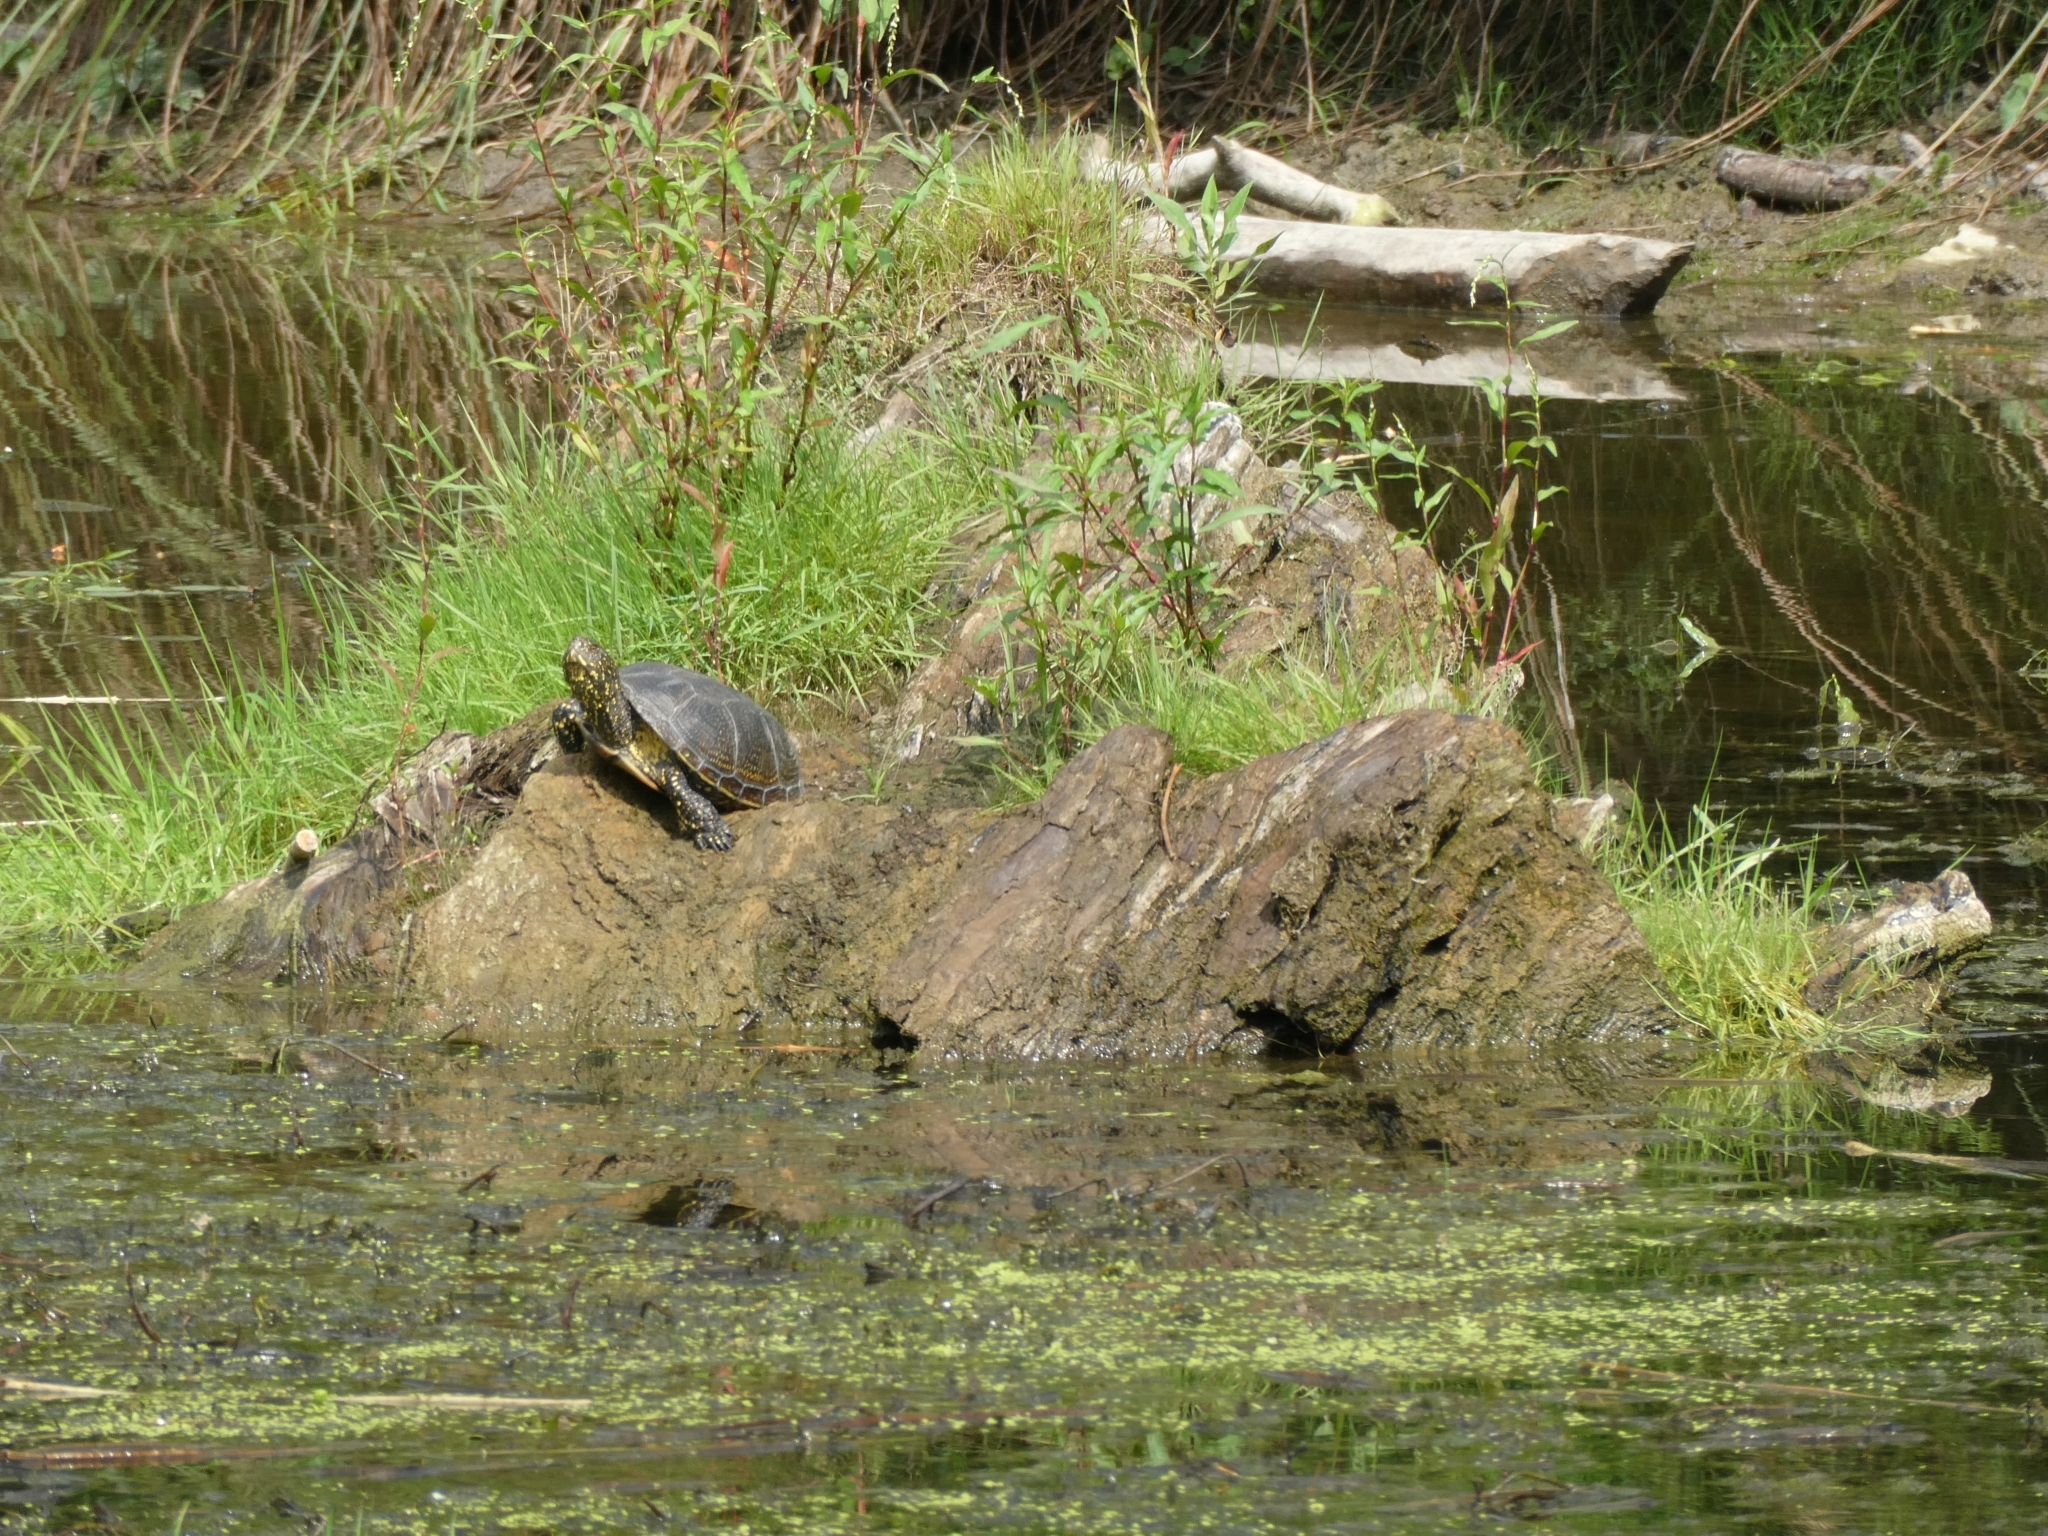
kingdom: Animalia
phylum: Chordata
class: Testudines
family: Emydidae
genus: Emys
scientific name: Emys orbicularis
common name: European pond turtle
